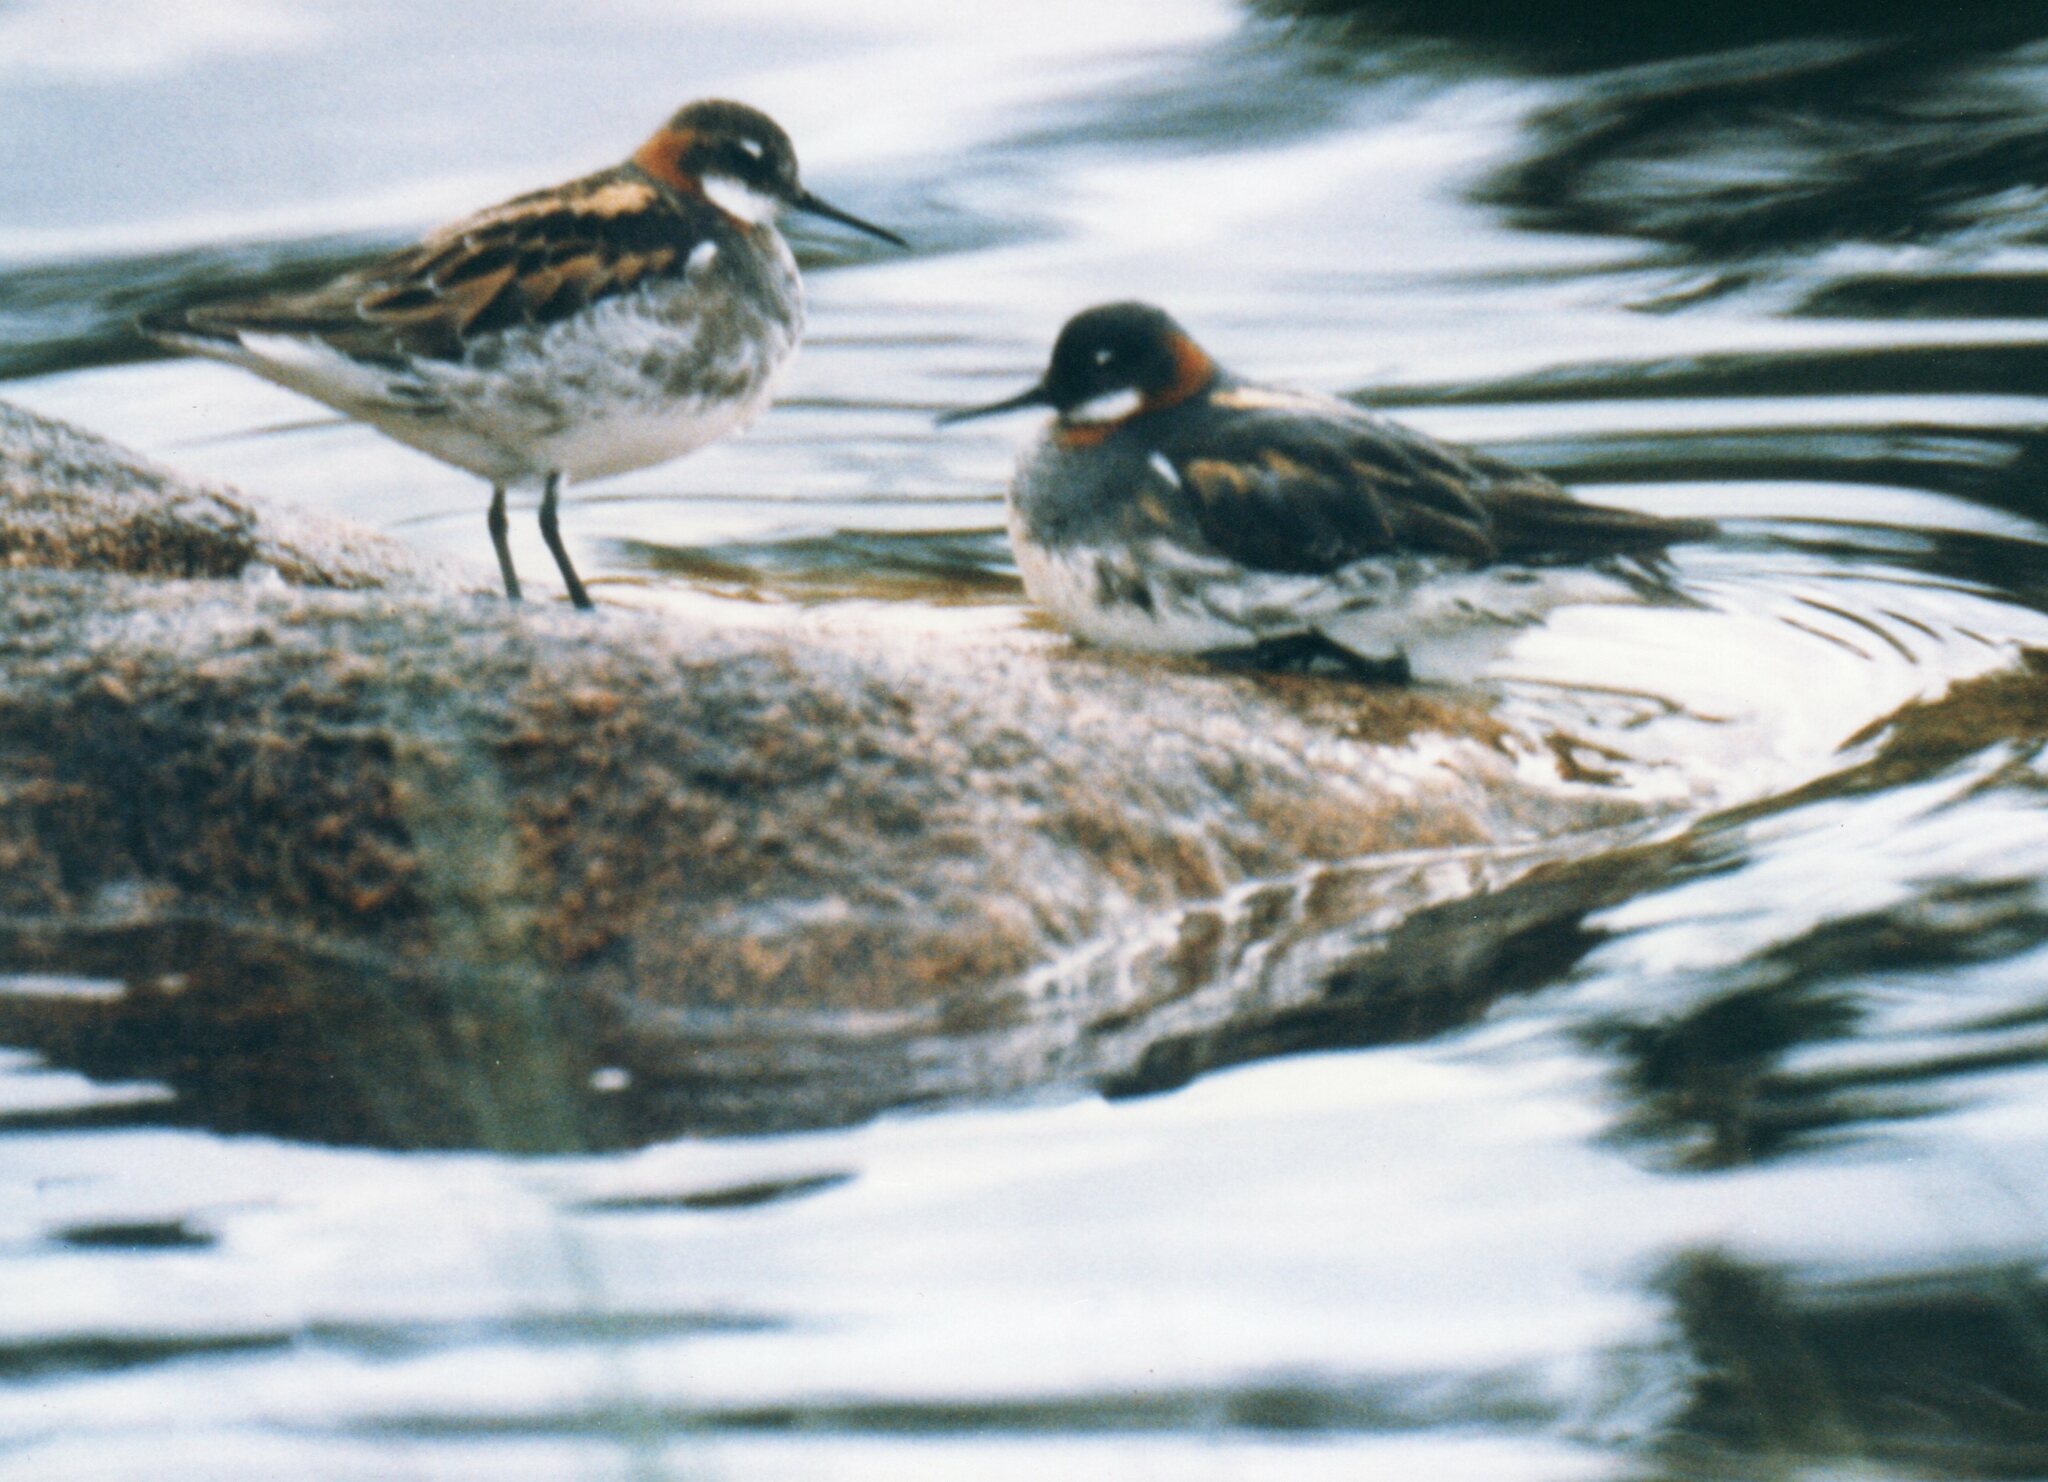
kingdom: Animalia
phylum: Chordata
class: Aves
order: Charadriiformes
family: Scolopacidae
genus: Phalaropus
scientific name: Phalaropus lobatus
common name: Red-necked phalarope
